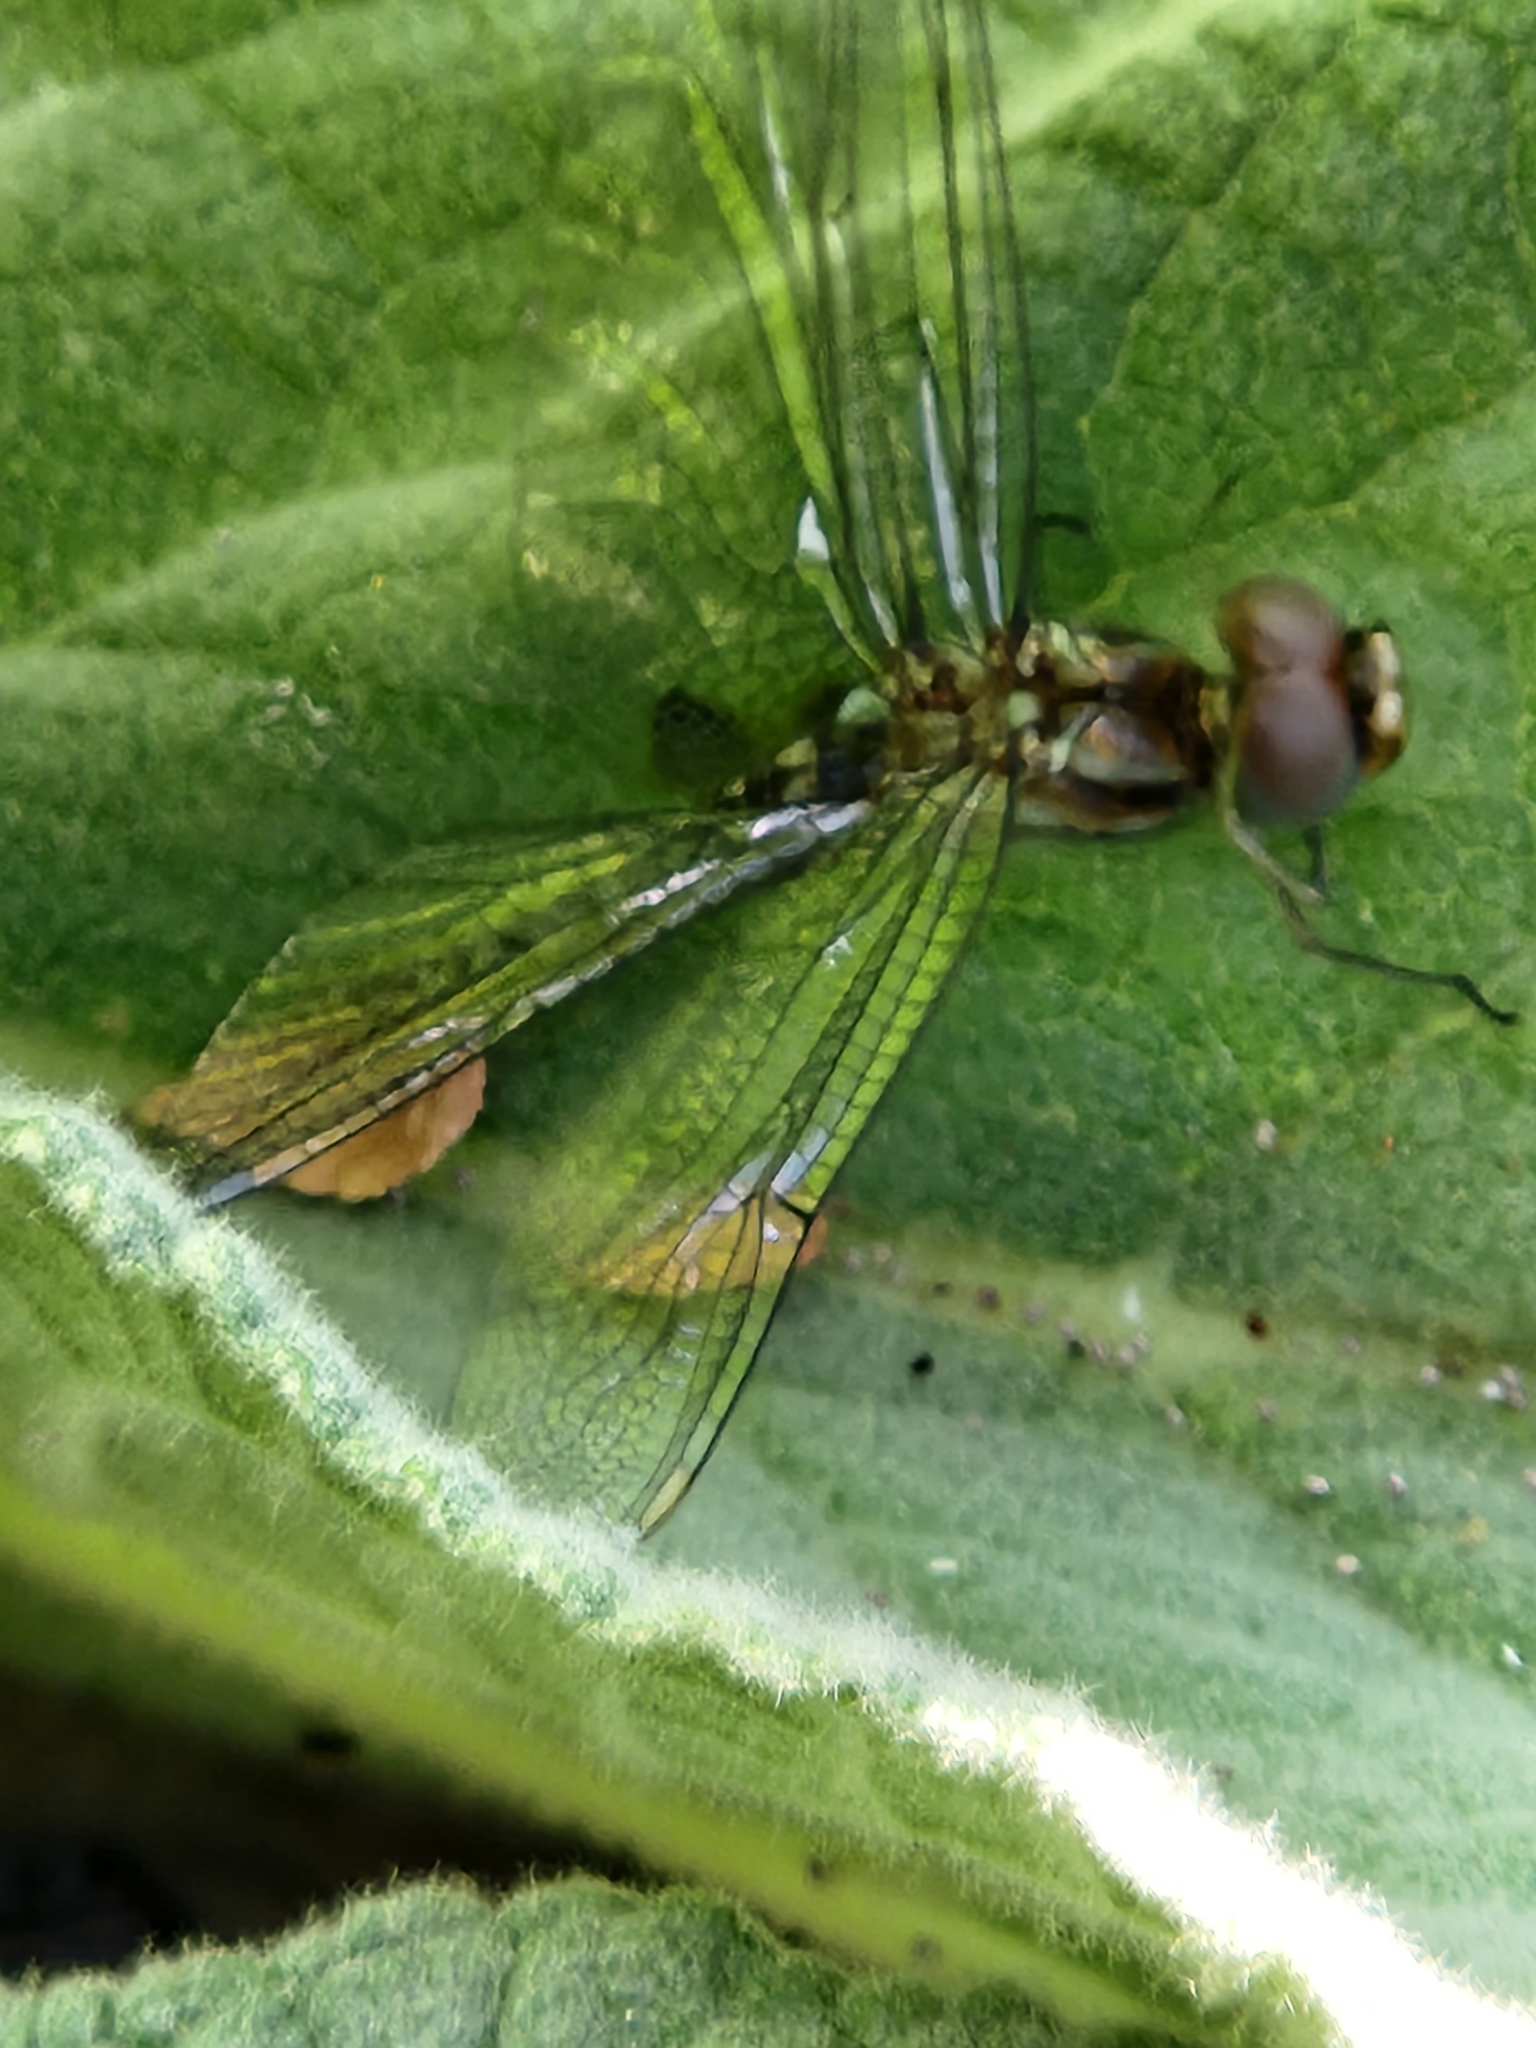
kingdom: Animalia
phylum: Arthropoda
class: Insecta
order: Odonata
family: Libellulidae
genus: Pantala
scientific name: Pantala hymenaea
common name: Spot-winged glider
